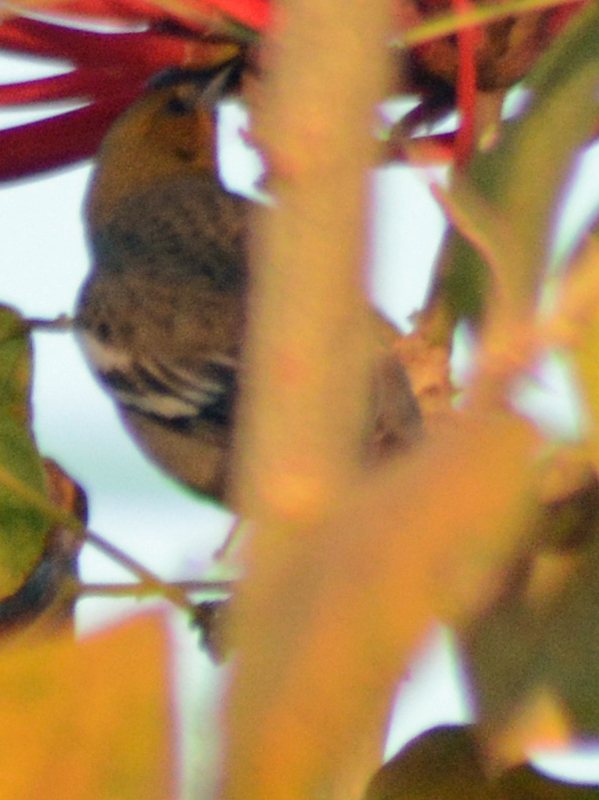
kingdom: Animalia
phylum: Chordata
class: Aves
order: Passeriformes
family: Icteridae
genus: Icterus
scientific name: Icterus bullockii
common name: Bullock's oriole
